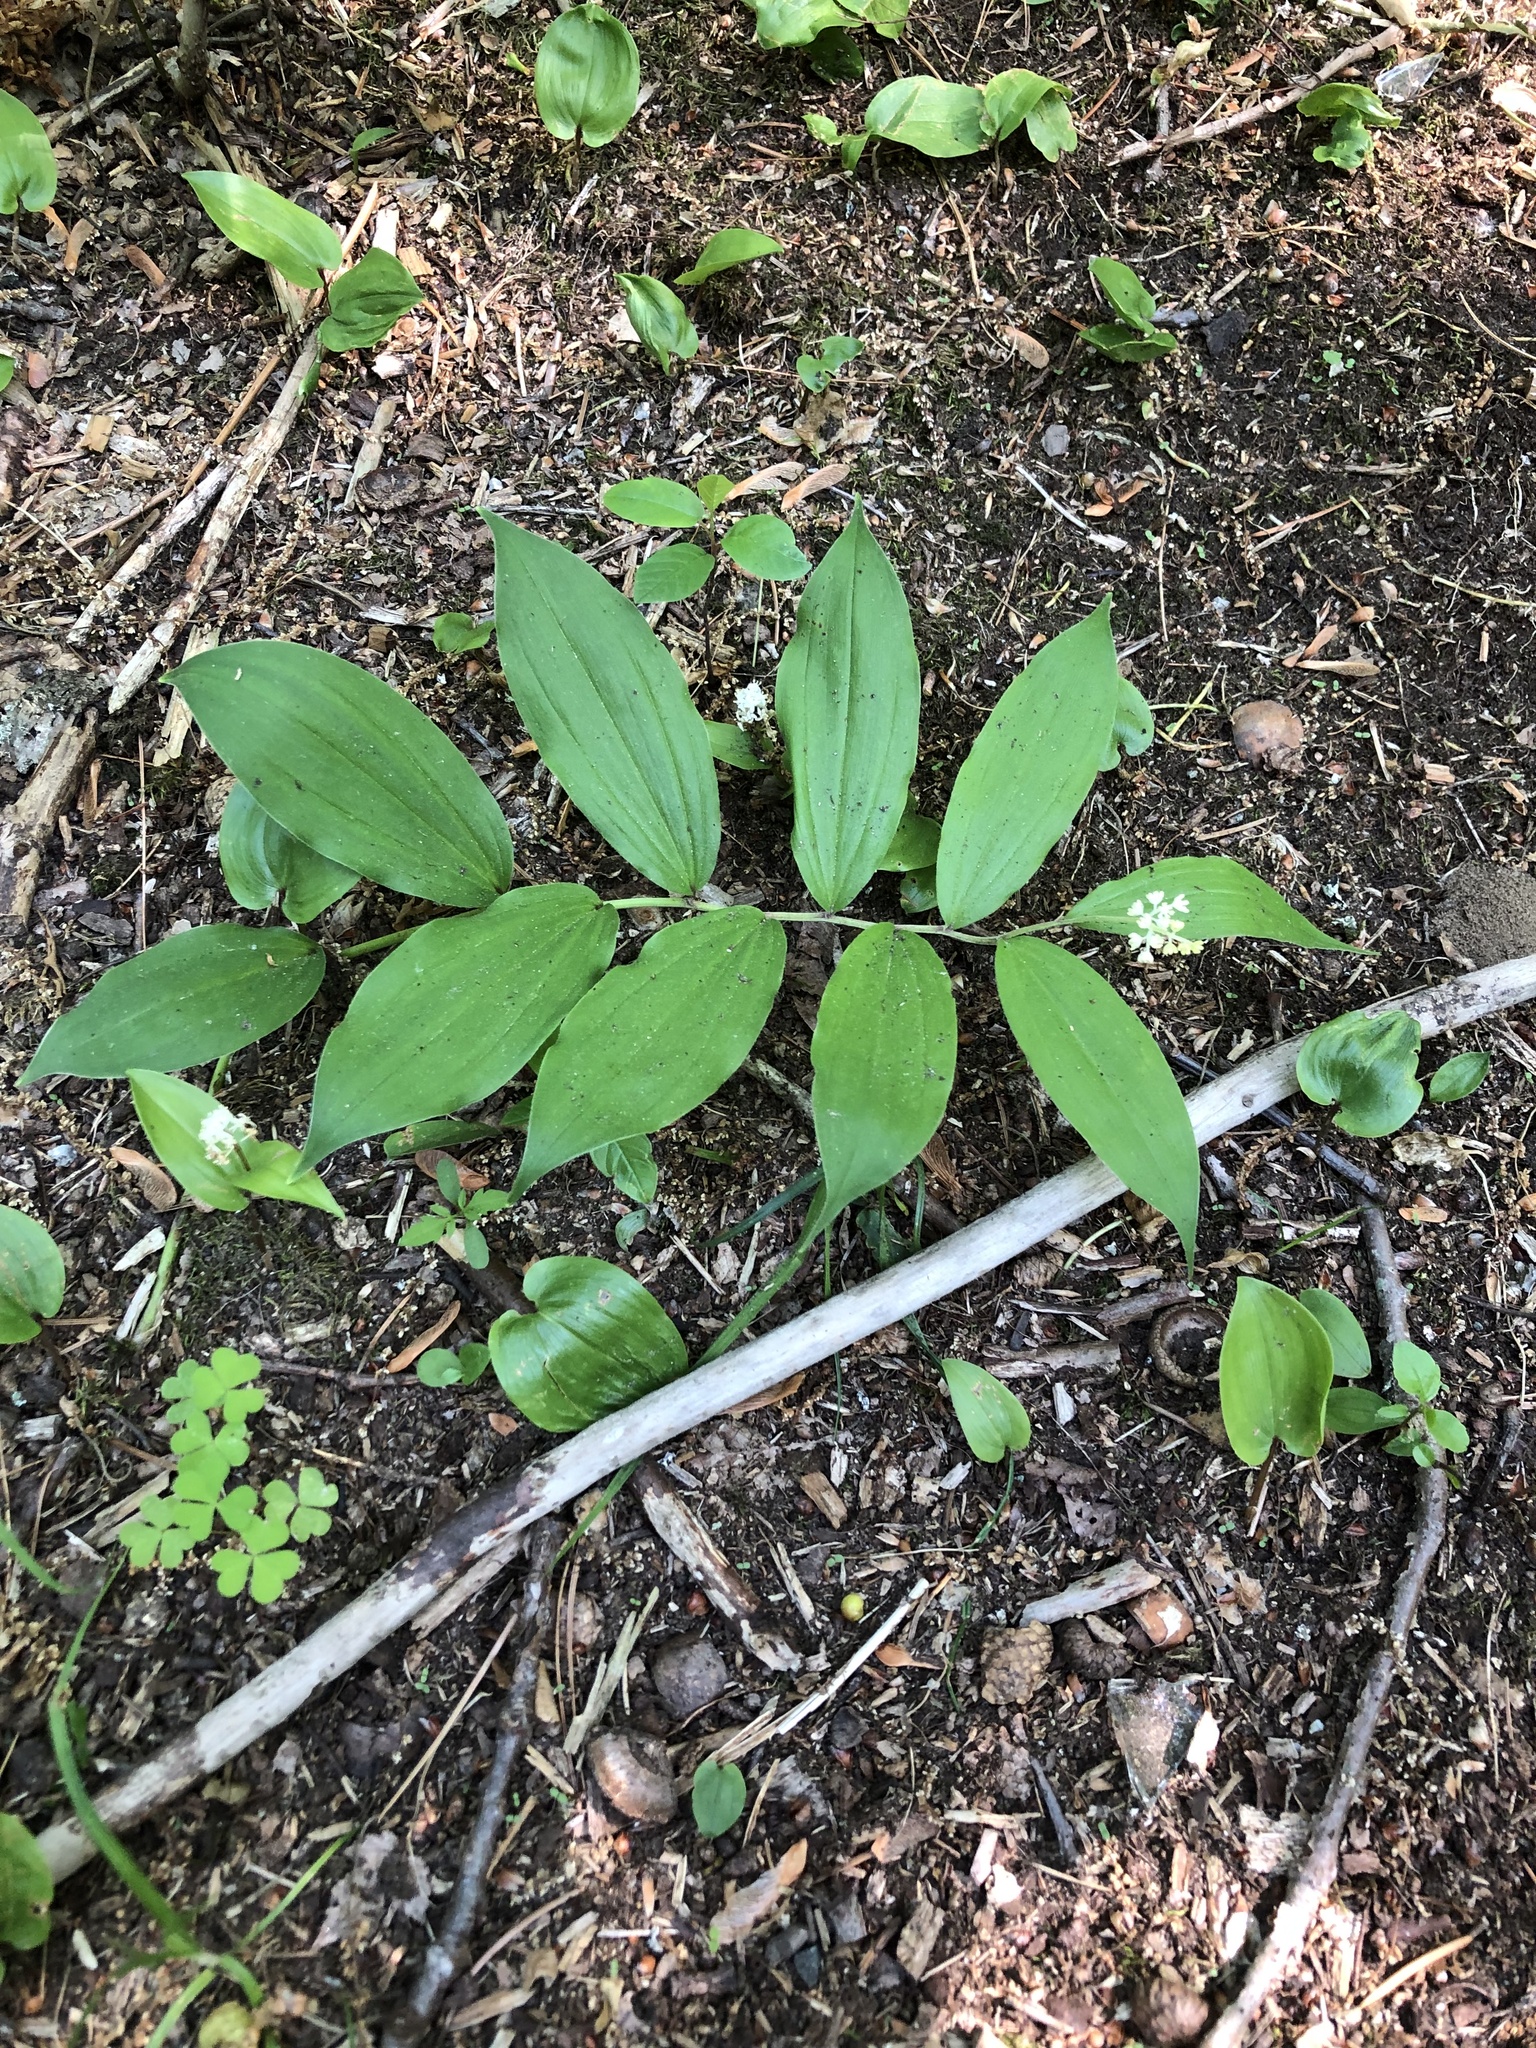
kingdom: Plantae
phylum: Tracheophyta
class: Liliopsida
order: Asparagales
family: Asparagaceae
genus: Maianthemum
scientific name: Maianthemum racemosum
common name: False spikenard
